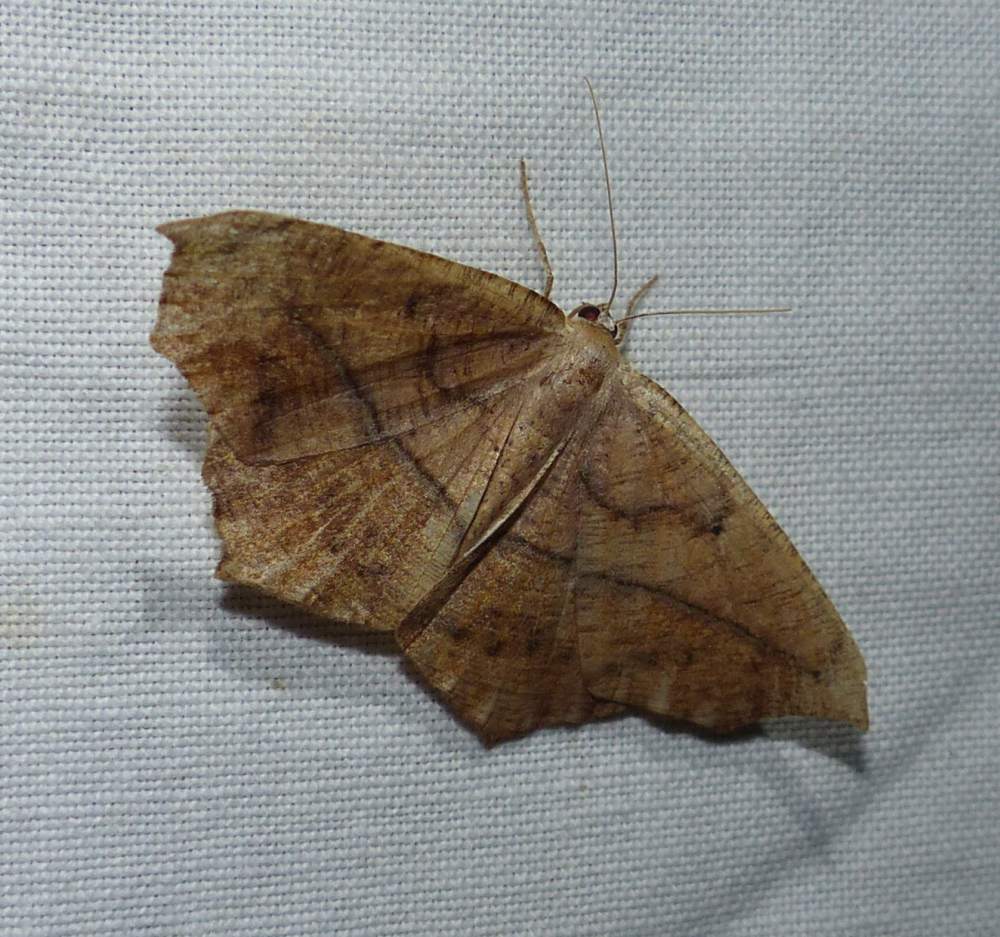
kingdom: Animalia
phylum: Arthropoda
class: Insecta
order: Lepidoptera
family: Geometridae
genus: Prochoerodes
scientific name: Prochoerodes lineola
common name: Large maple spanworm
